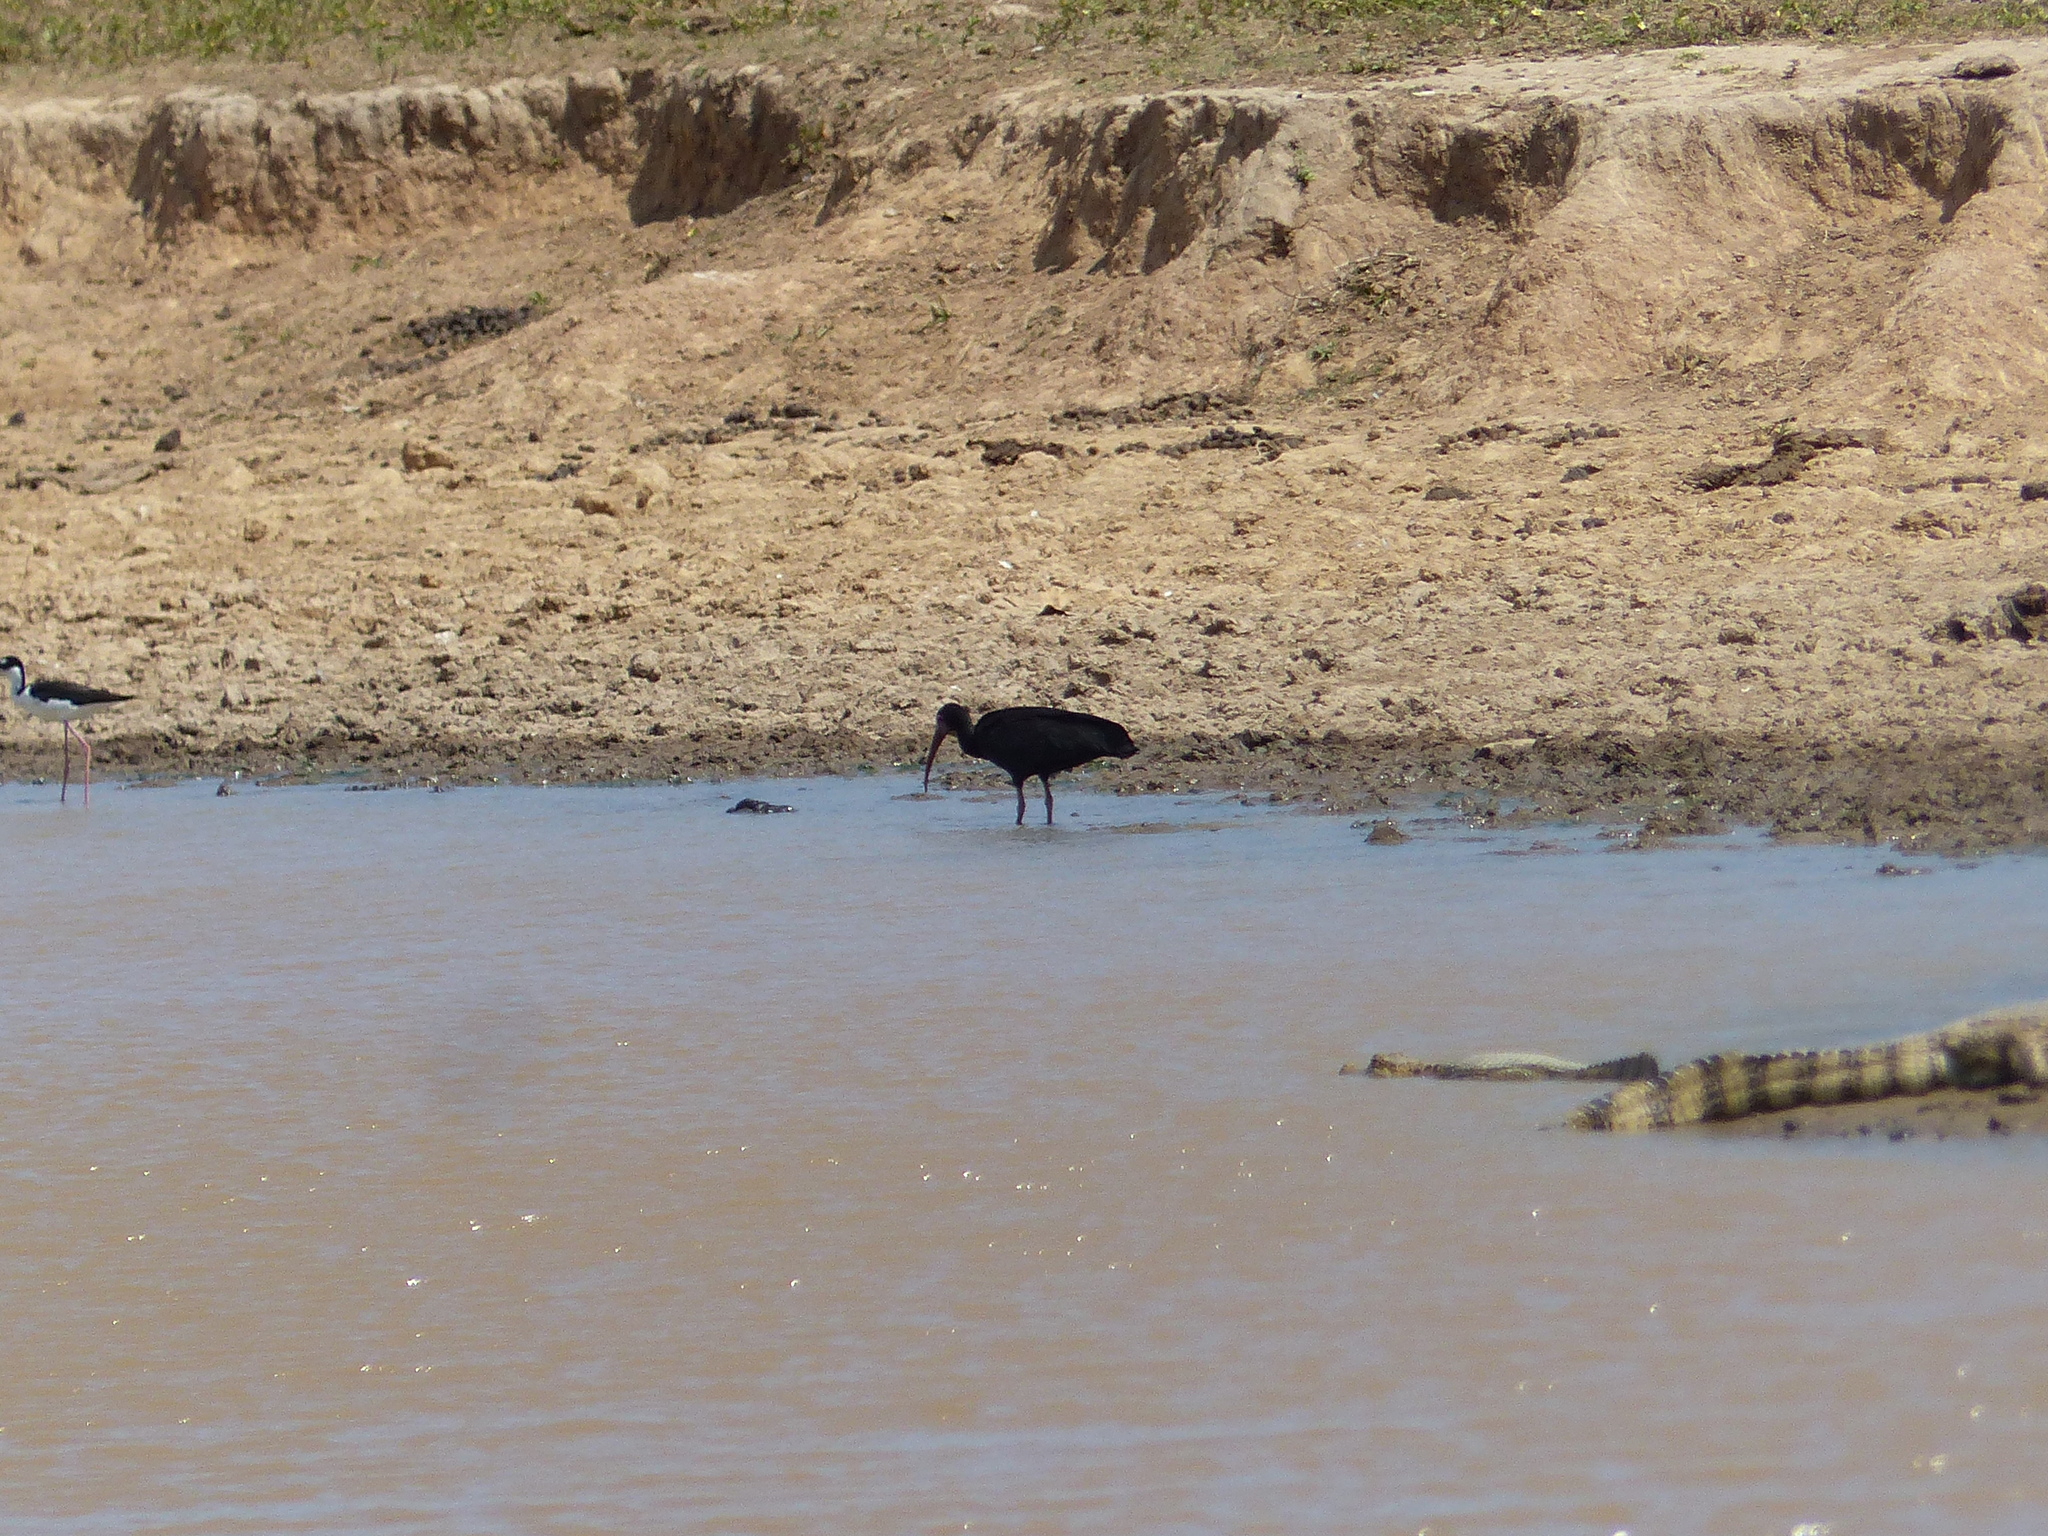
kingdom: Animalia
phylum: Chordata
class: Aves
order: Pelecaniformes
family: Threskiornithidae
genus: Phimosus
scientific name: Phimosus infuscatus
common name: Bare-faced ibis
